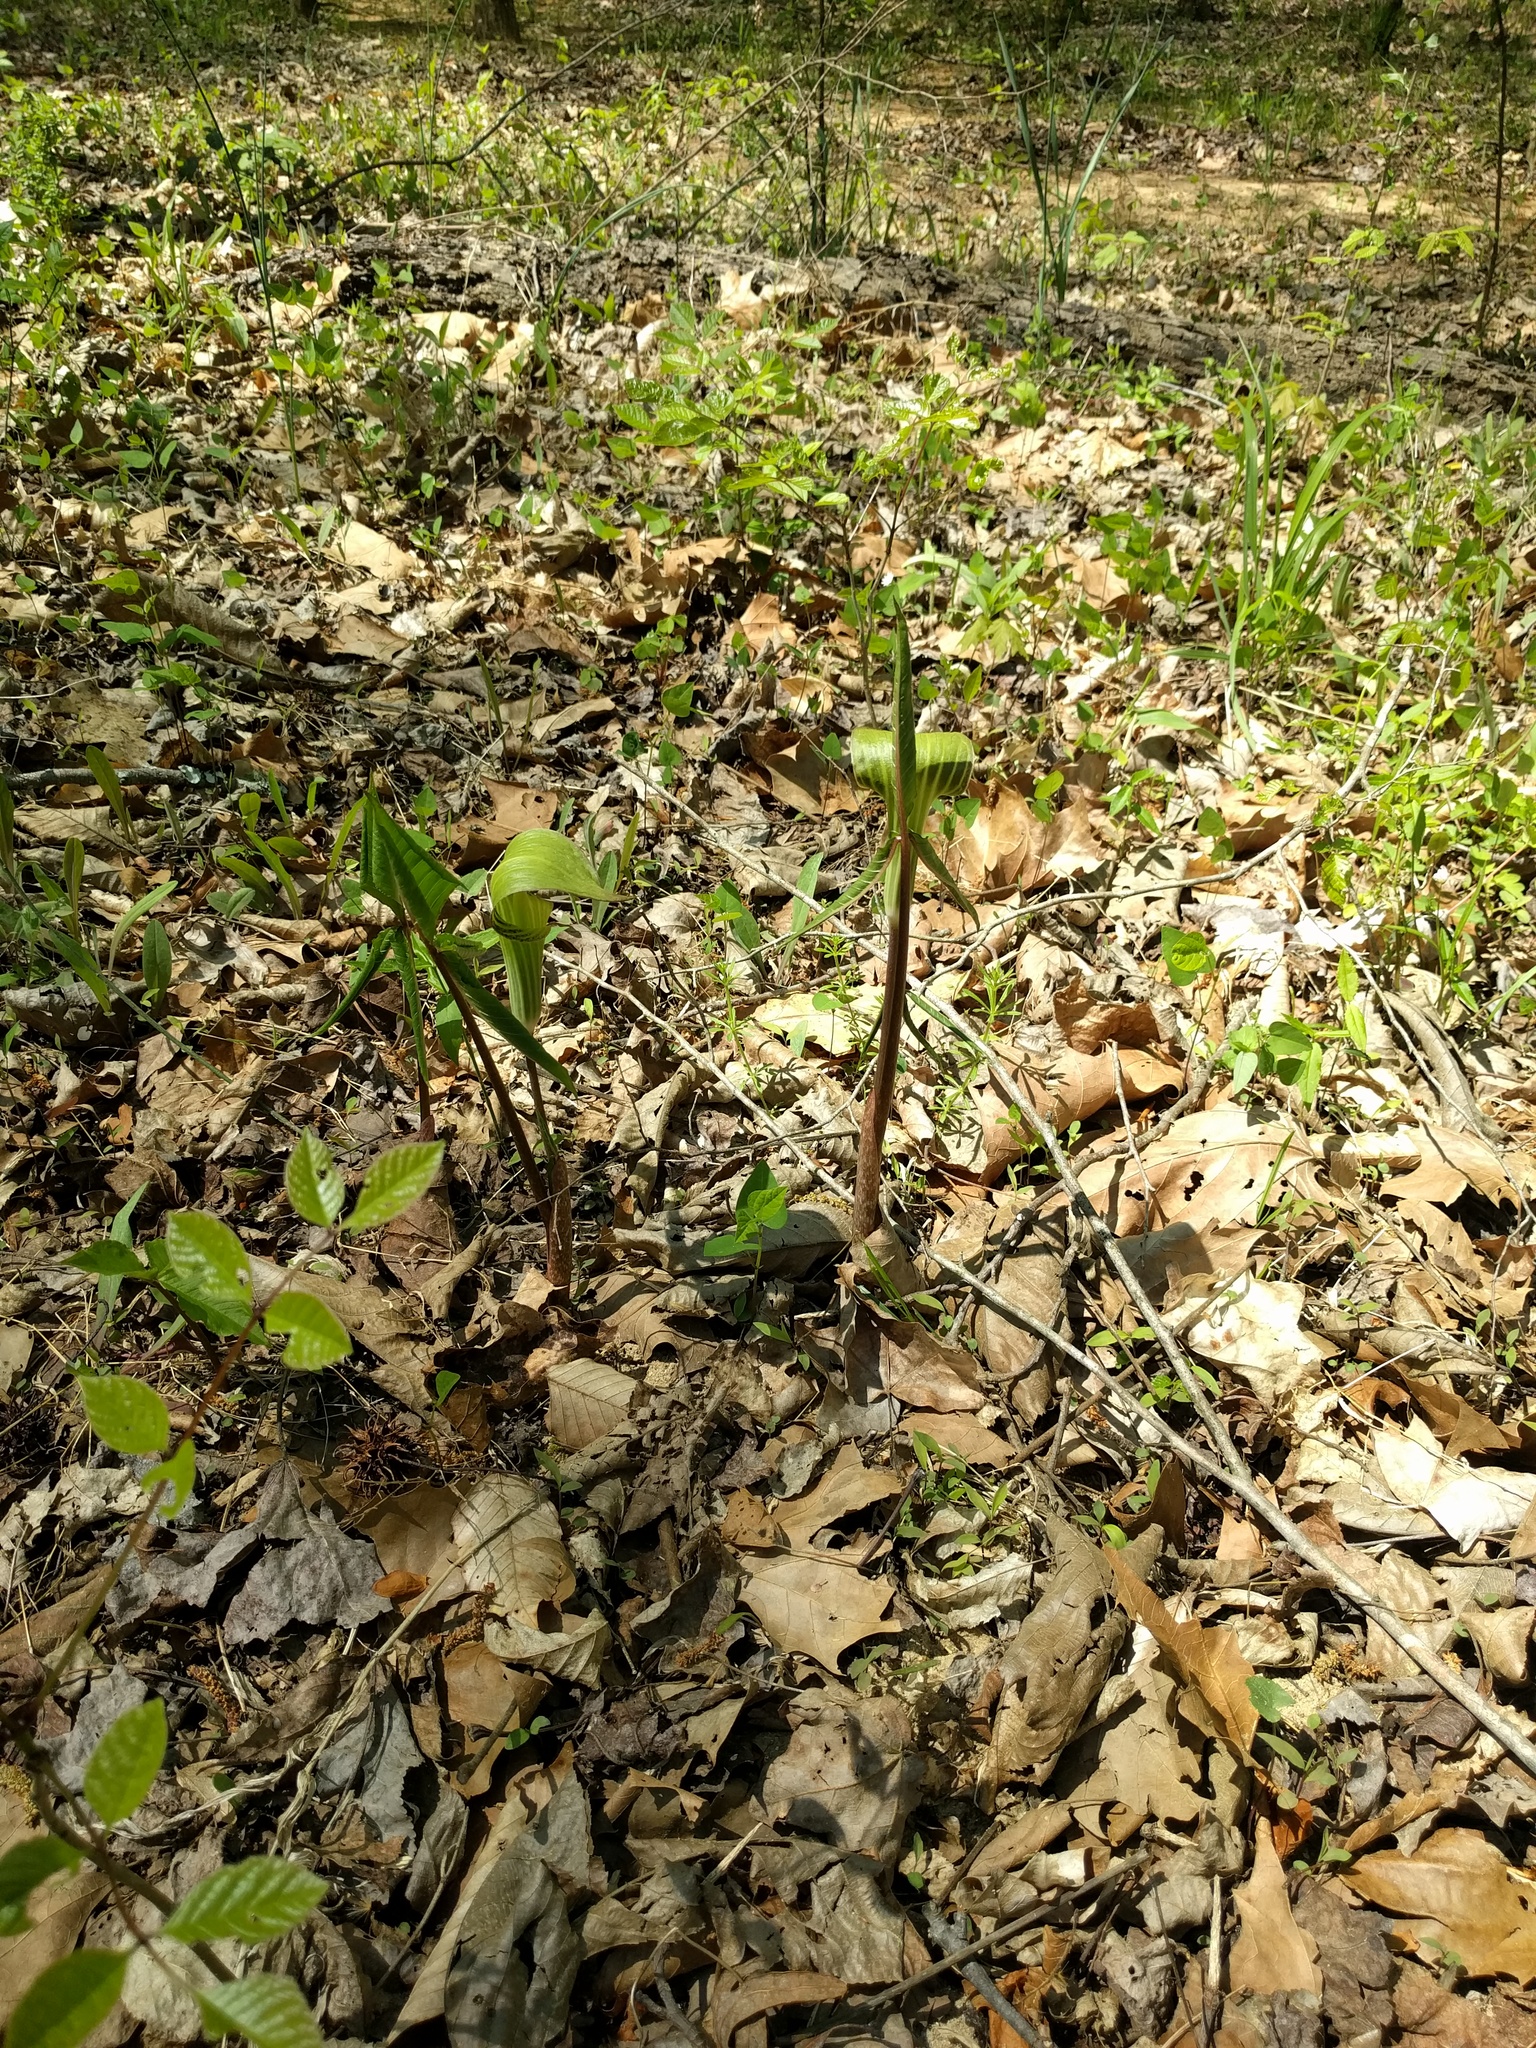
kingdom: Plantae
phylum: Tracheophyta
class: Liliopsida
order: Alismatales
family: Araceae
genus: Arisaema
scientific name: Arisaema triphyllum
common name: Jack-in-the-pulpit
